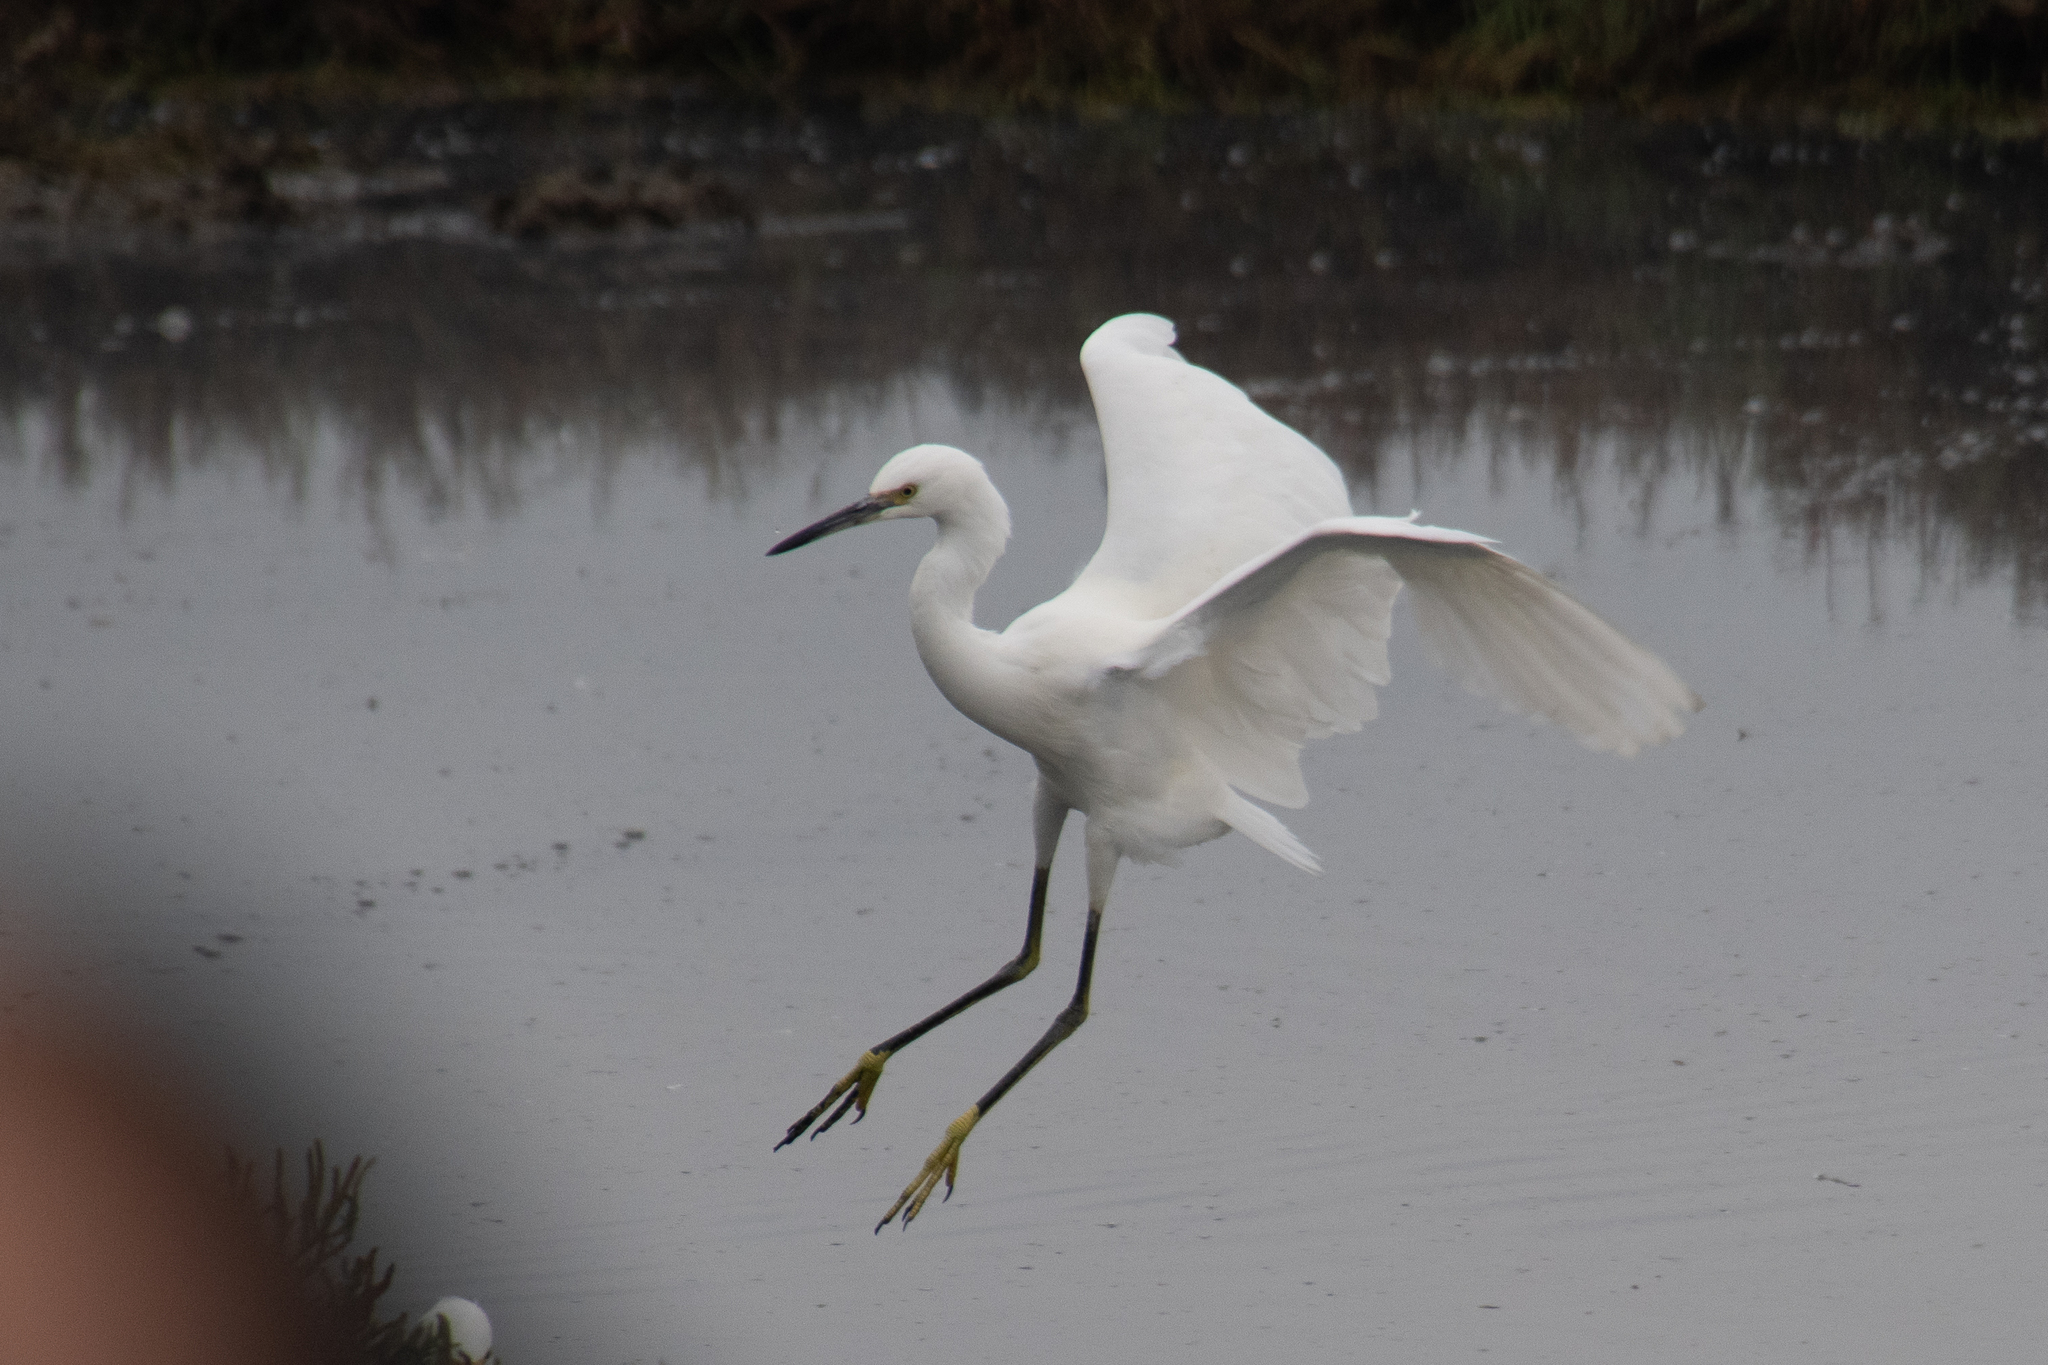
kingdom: Animalia
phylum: Chordata
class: Aves
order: Pelecaniformes
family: Ardeidae
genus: Egretta
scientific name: Egretta thula
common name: Snowy egret
